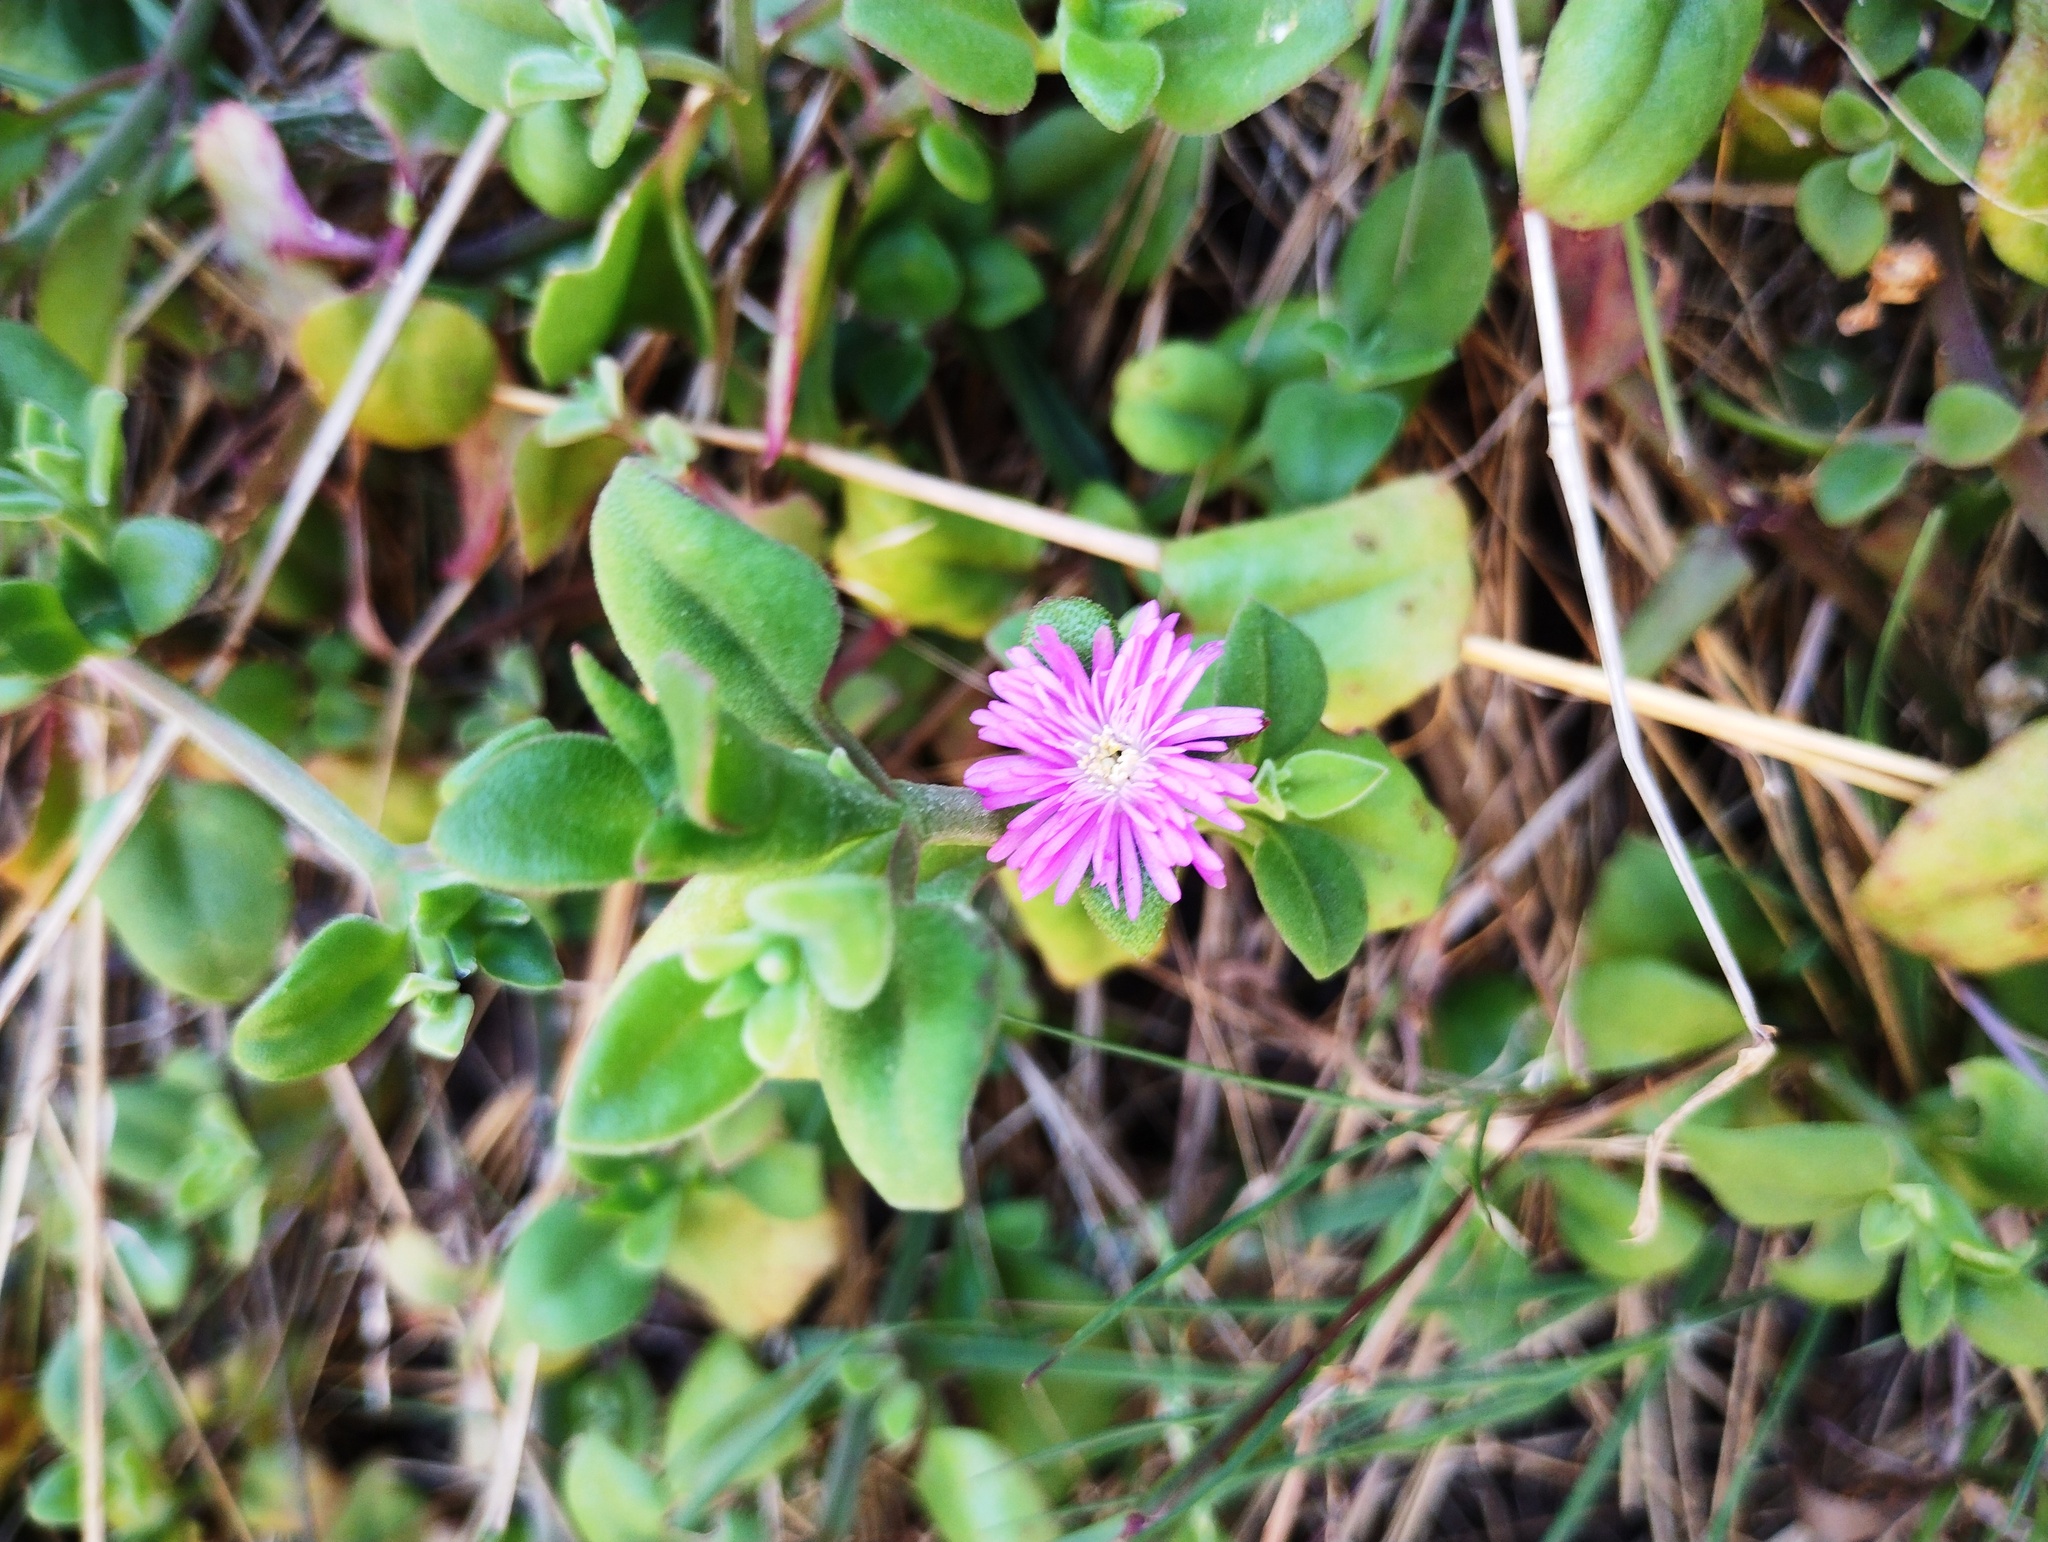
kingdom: Plantae
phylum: Tracheophyta
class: Magnoliopsida
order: Caryophyllales
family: Aizoaceae
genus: Mesembryanthemum
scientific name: Mesembryanthemum cordifolium
